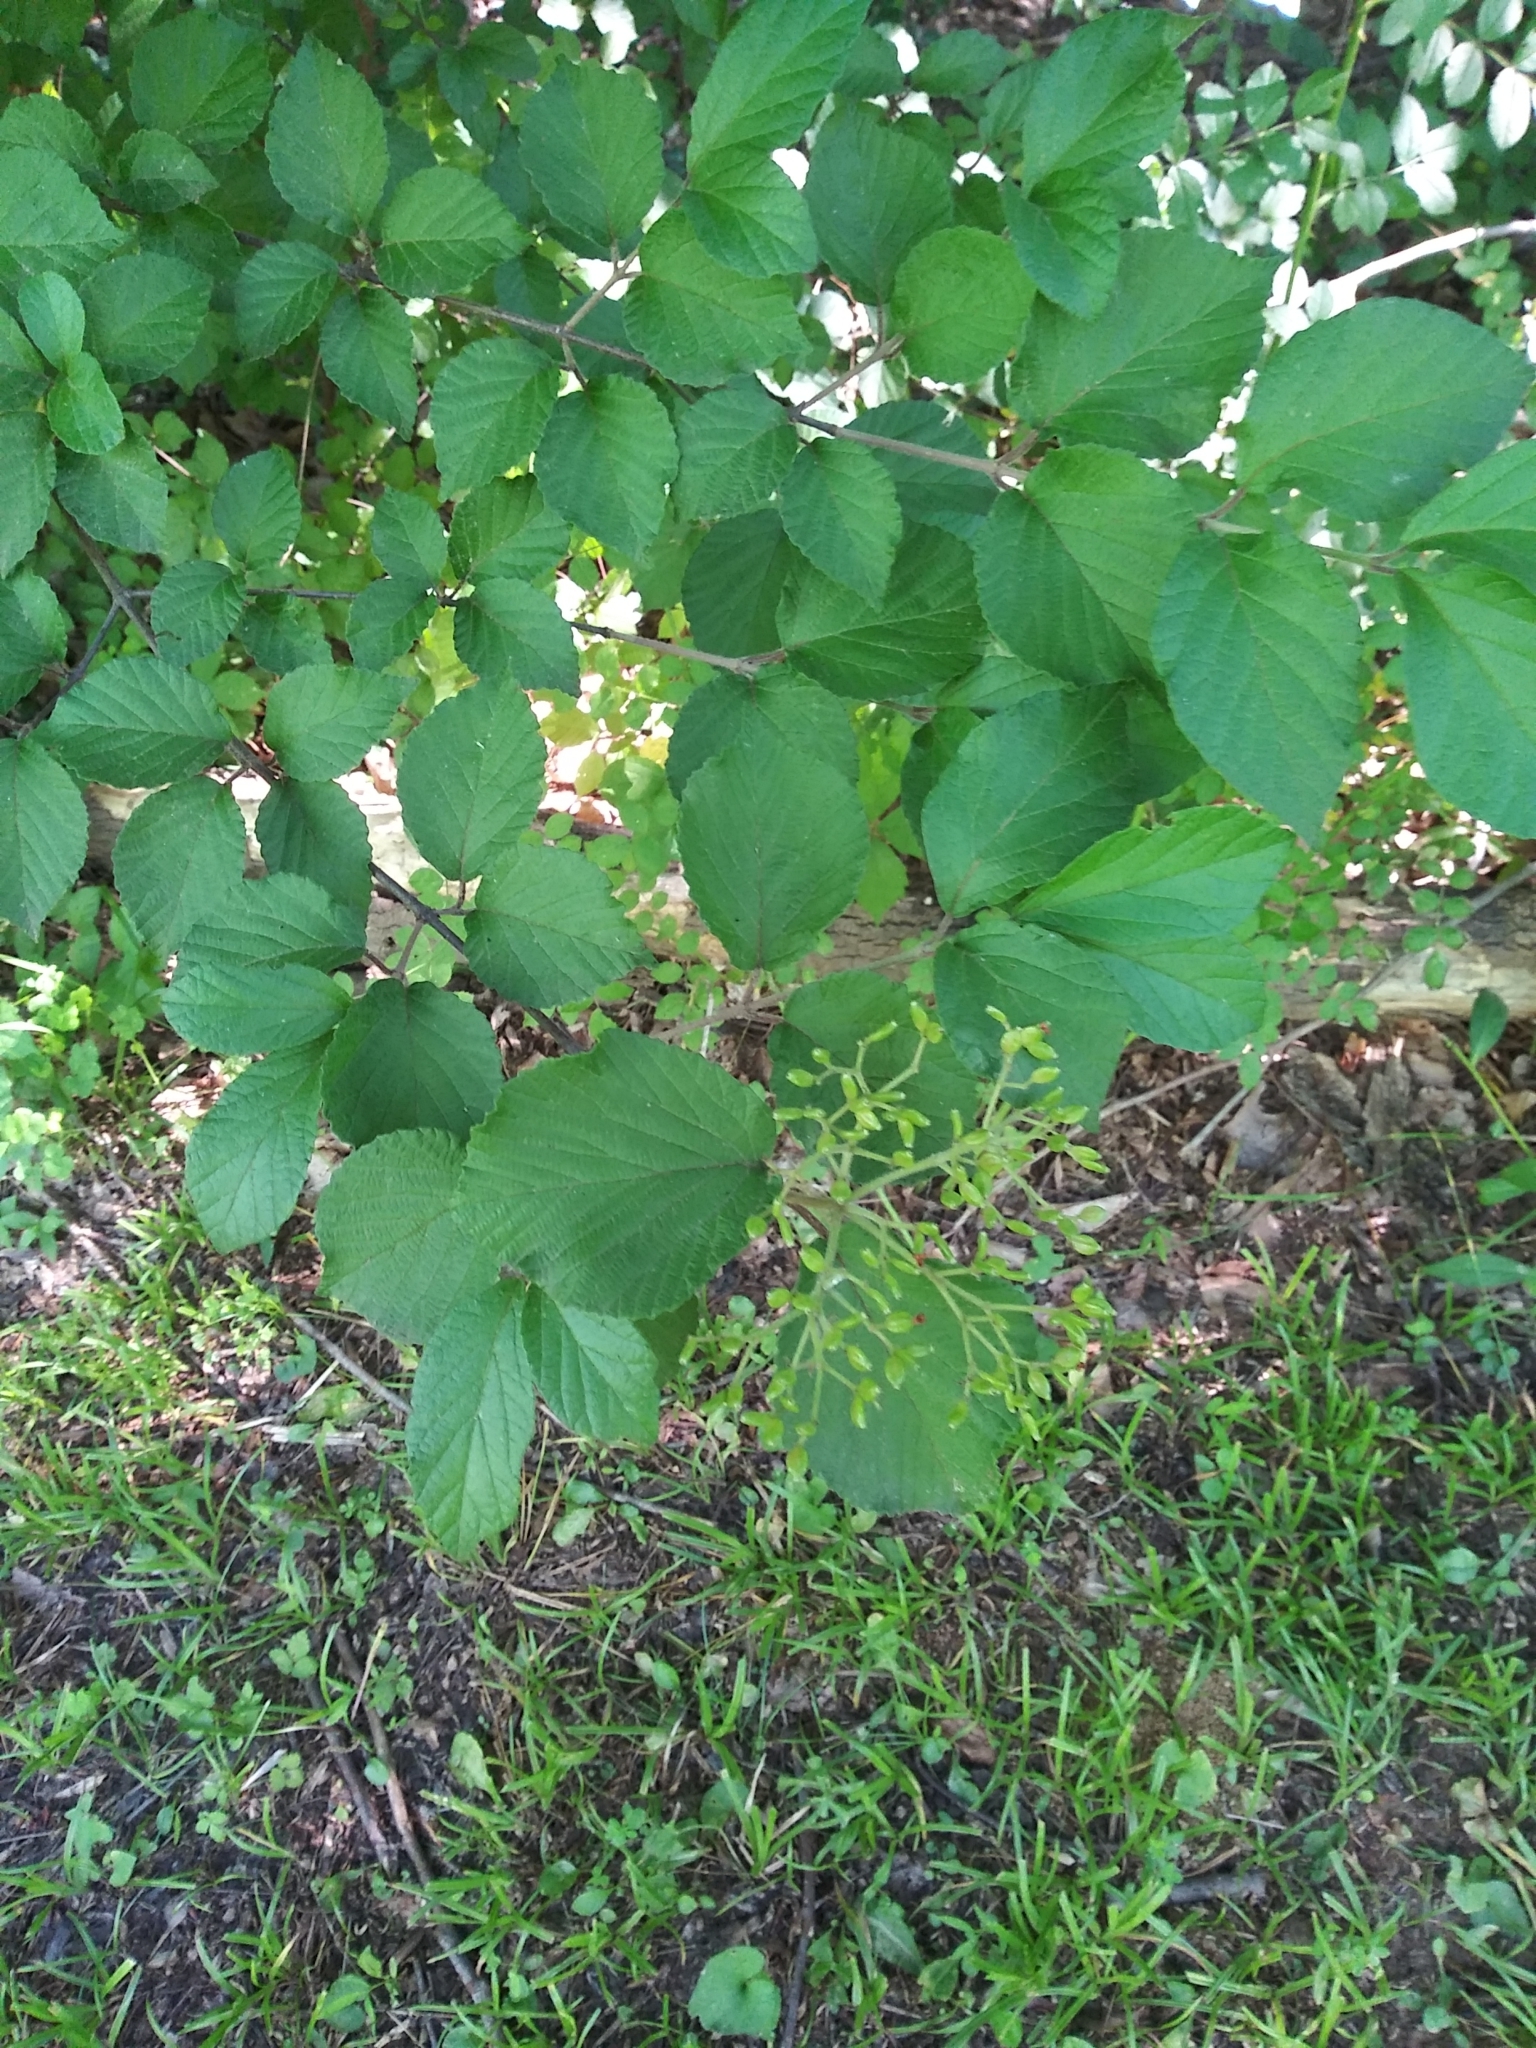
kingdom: Plantae
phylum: Tracheophyta
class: Magnoliopsida
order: Dipsacales
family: Viburnaceae
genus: Viburnum
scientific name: Viburnum dilatatum
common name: Linden arrowwood
